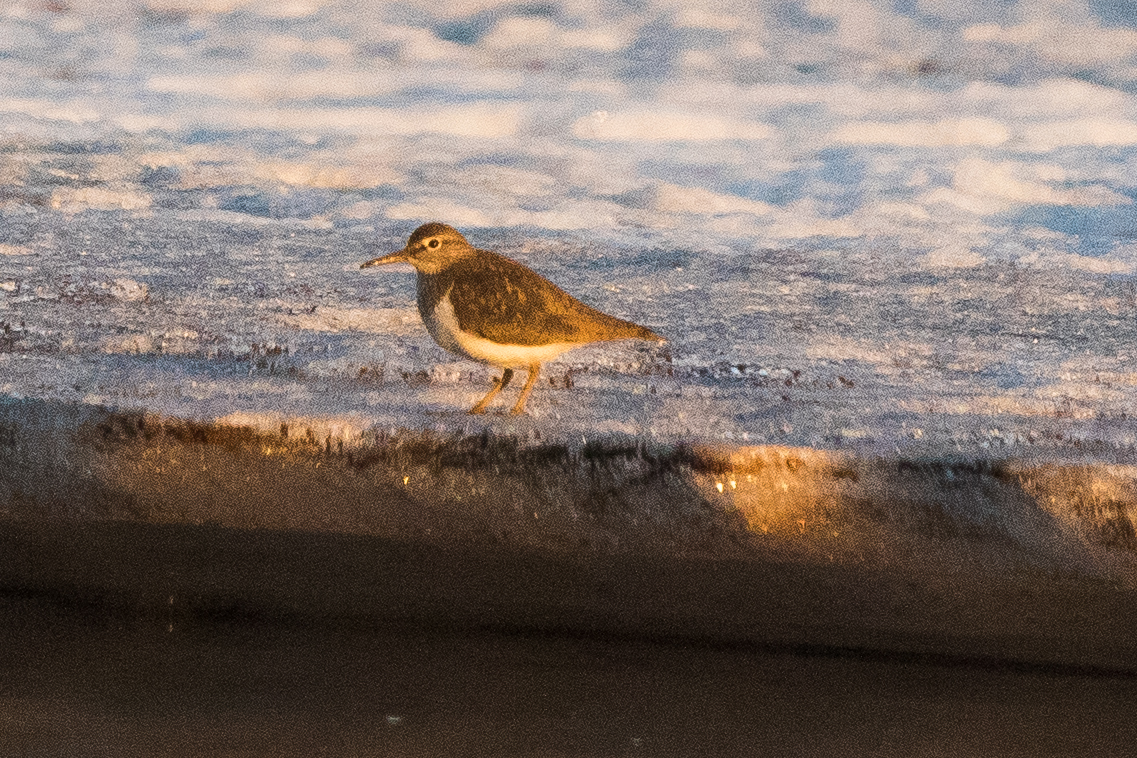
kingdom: Animalia
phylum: Chordata
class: Aves
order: Charadriiformes
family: Scolopacidae
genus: Actitis
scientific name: Actitis hypoleucos
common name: Common sandpiper
